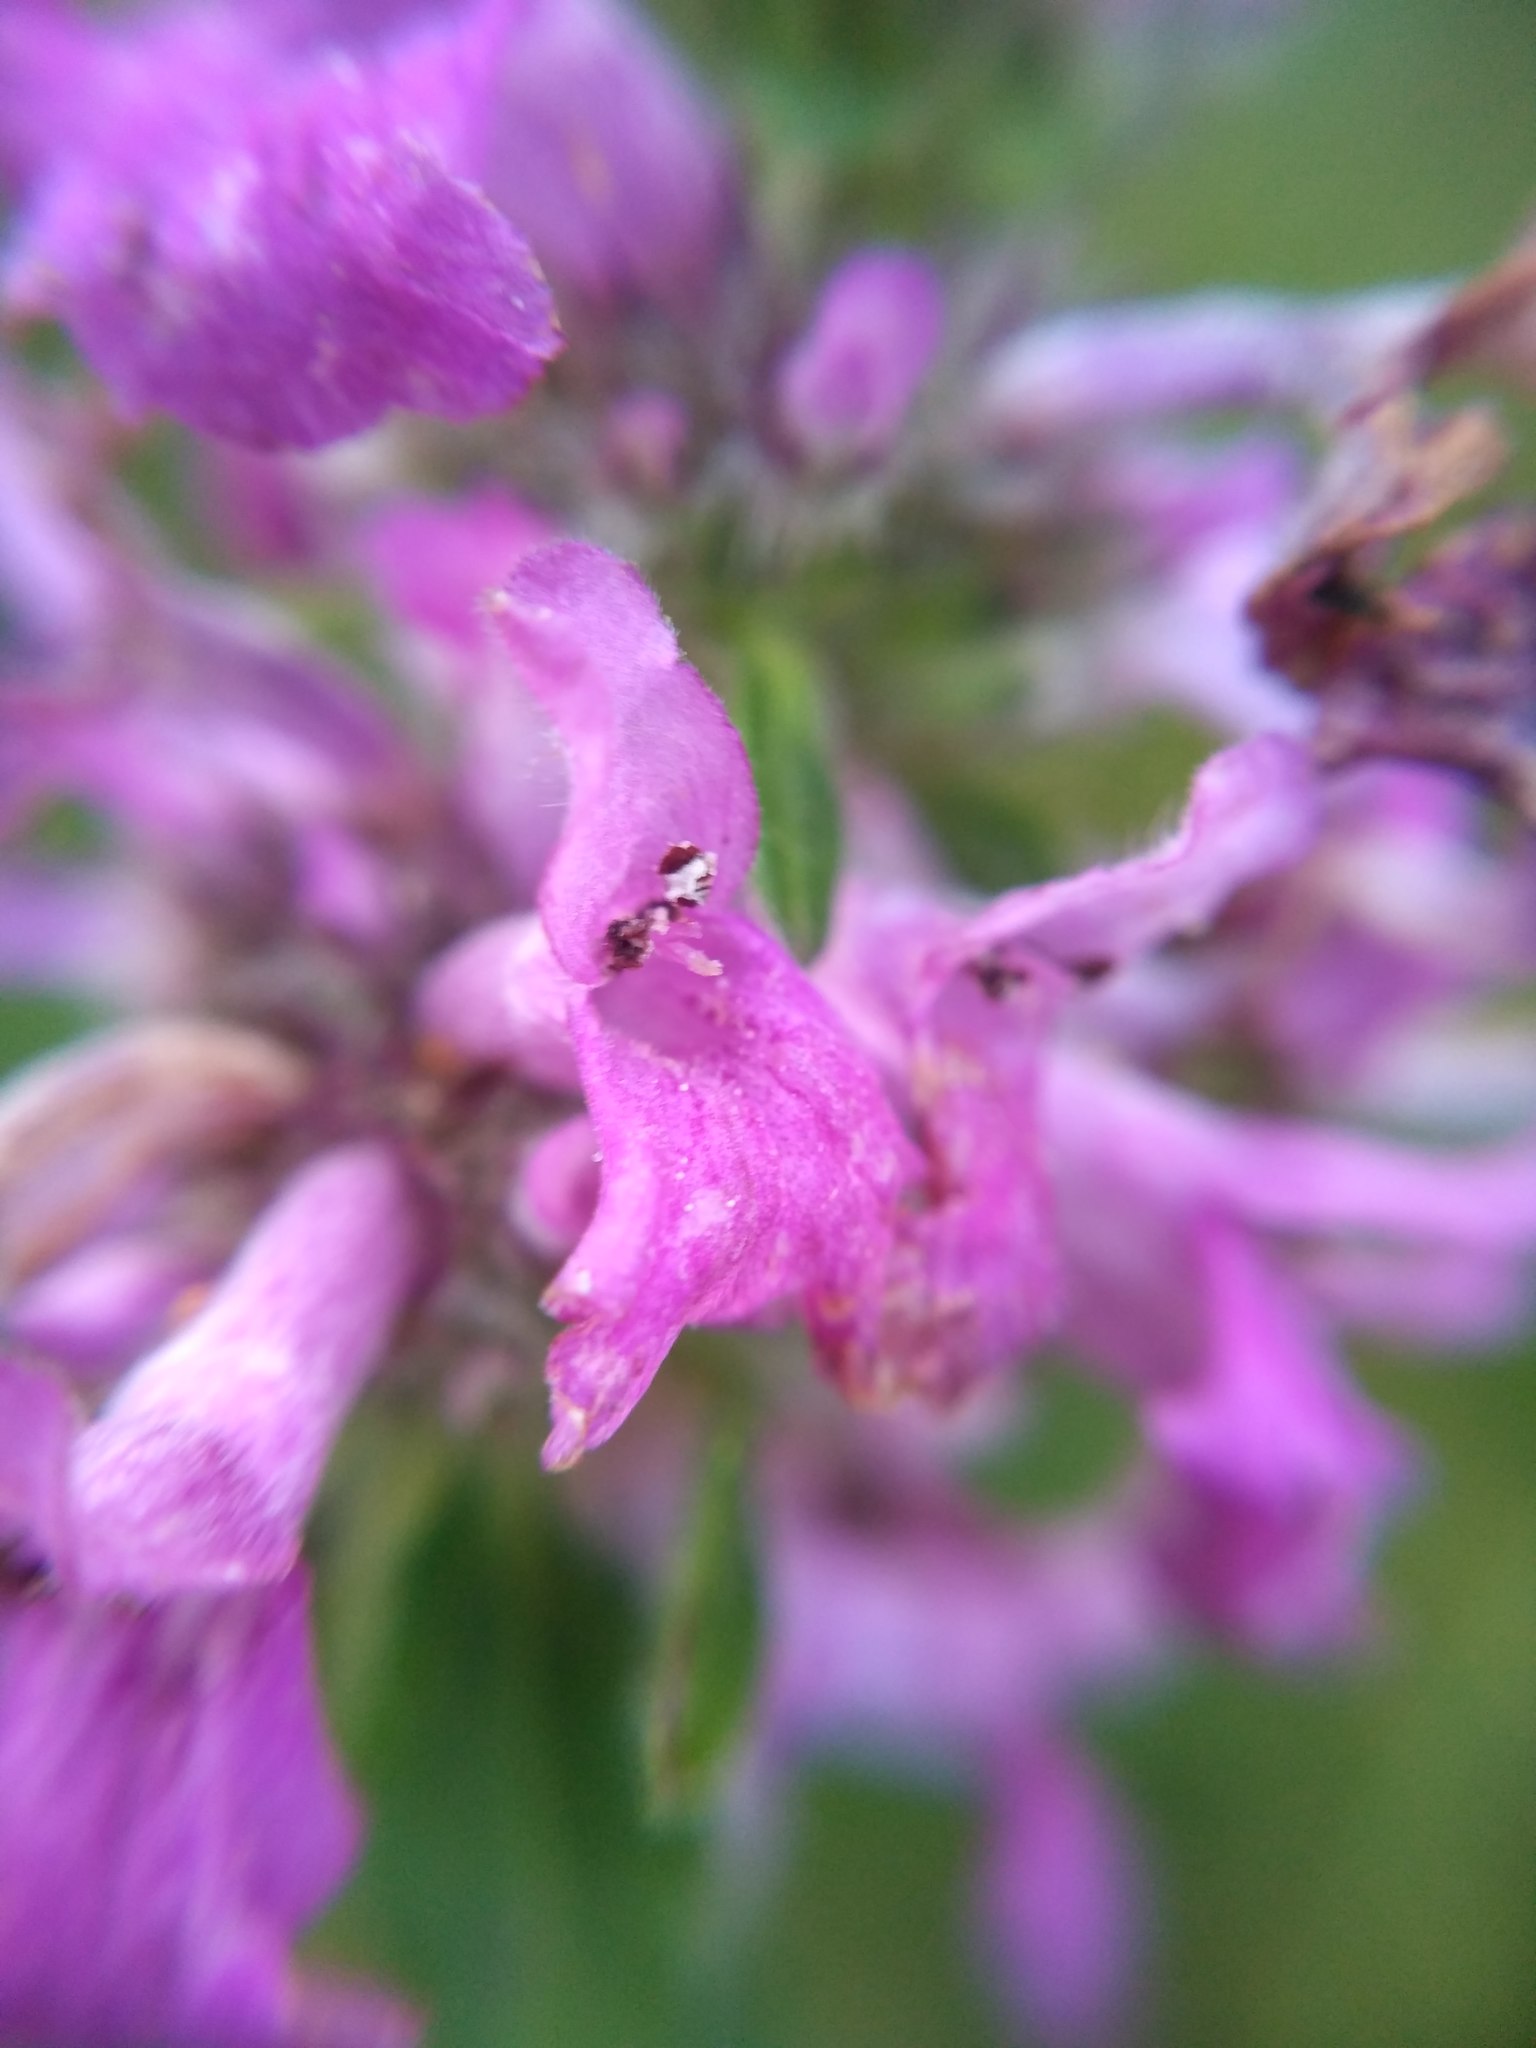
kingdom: Plantae
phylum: Tracheophyta
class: Magnoliopsida
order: Lamiales
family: Lamiaceae
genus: Betonica
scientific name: Betonica officinalis
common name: Bishop's-wort
